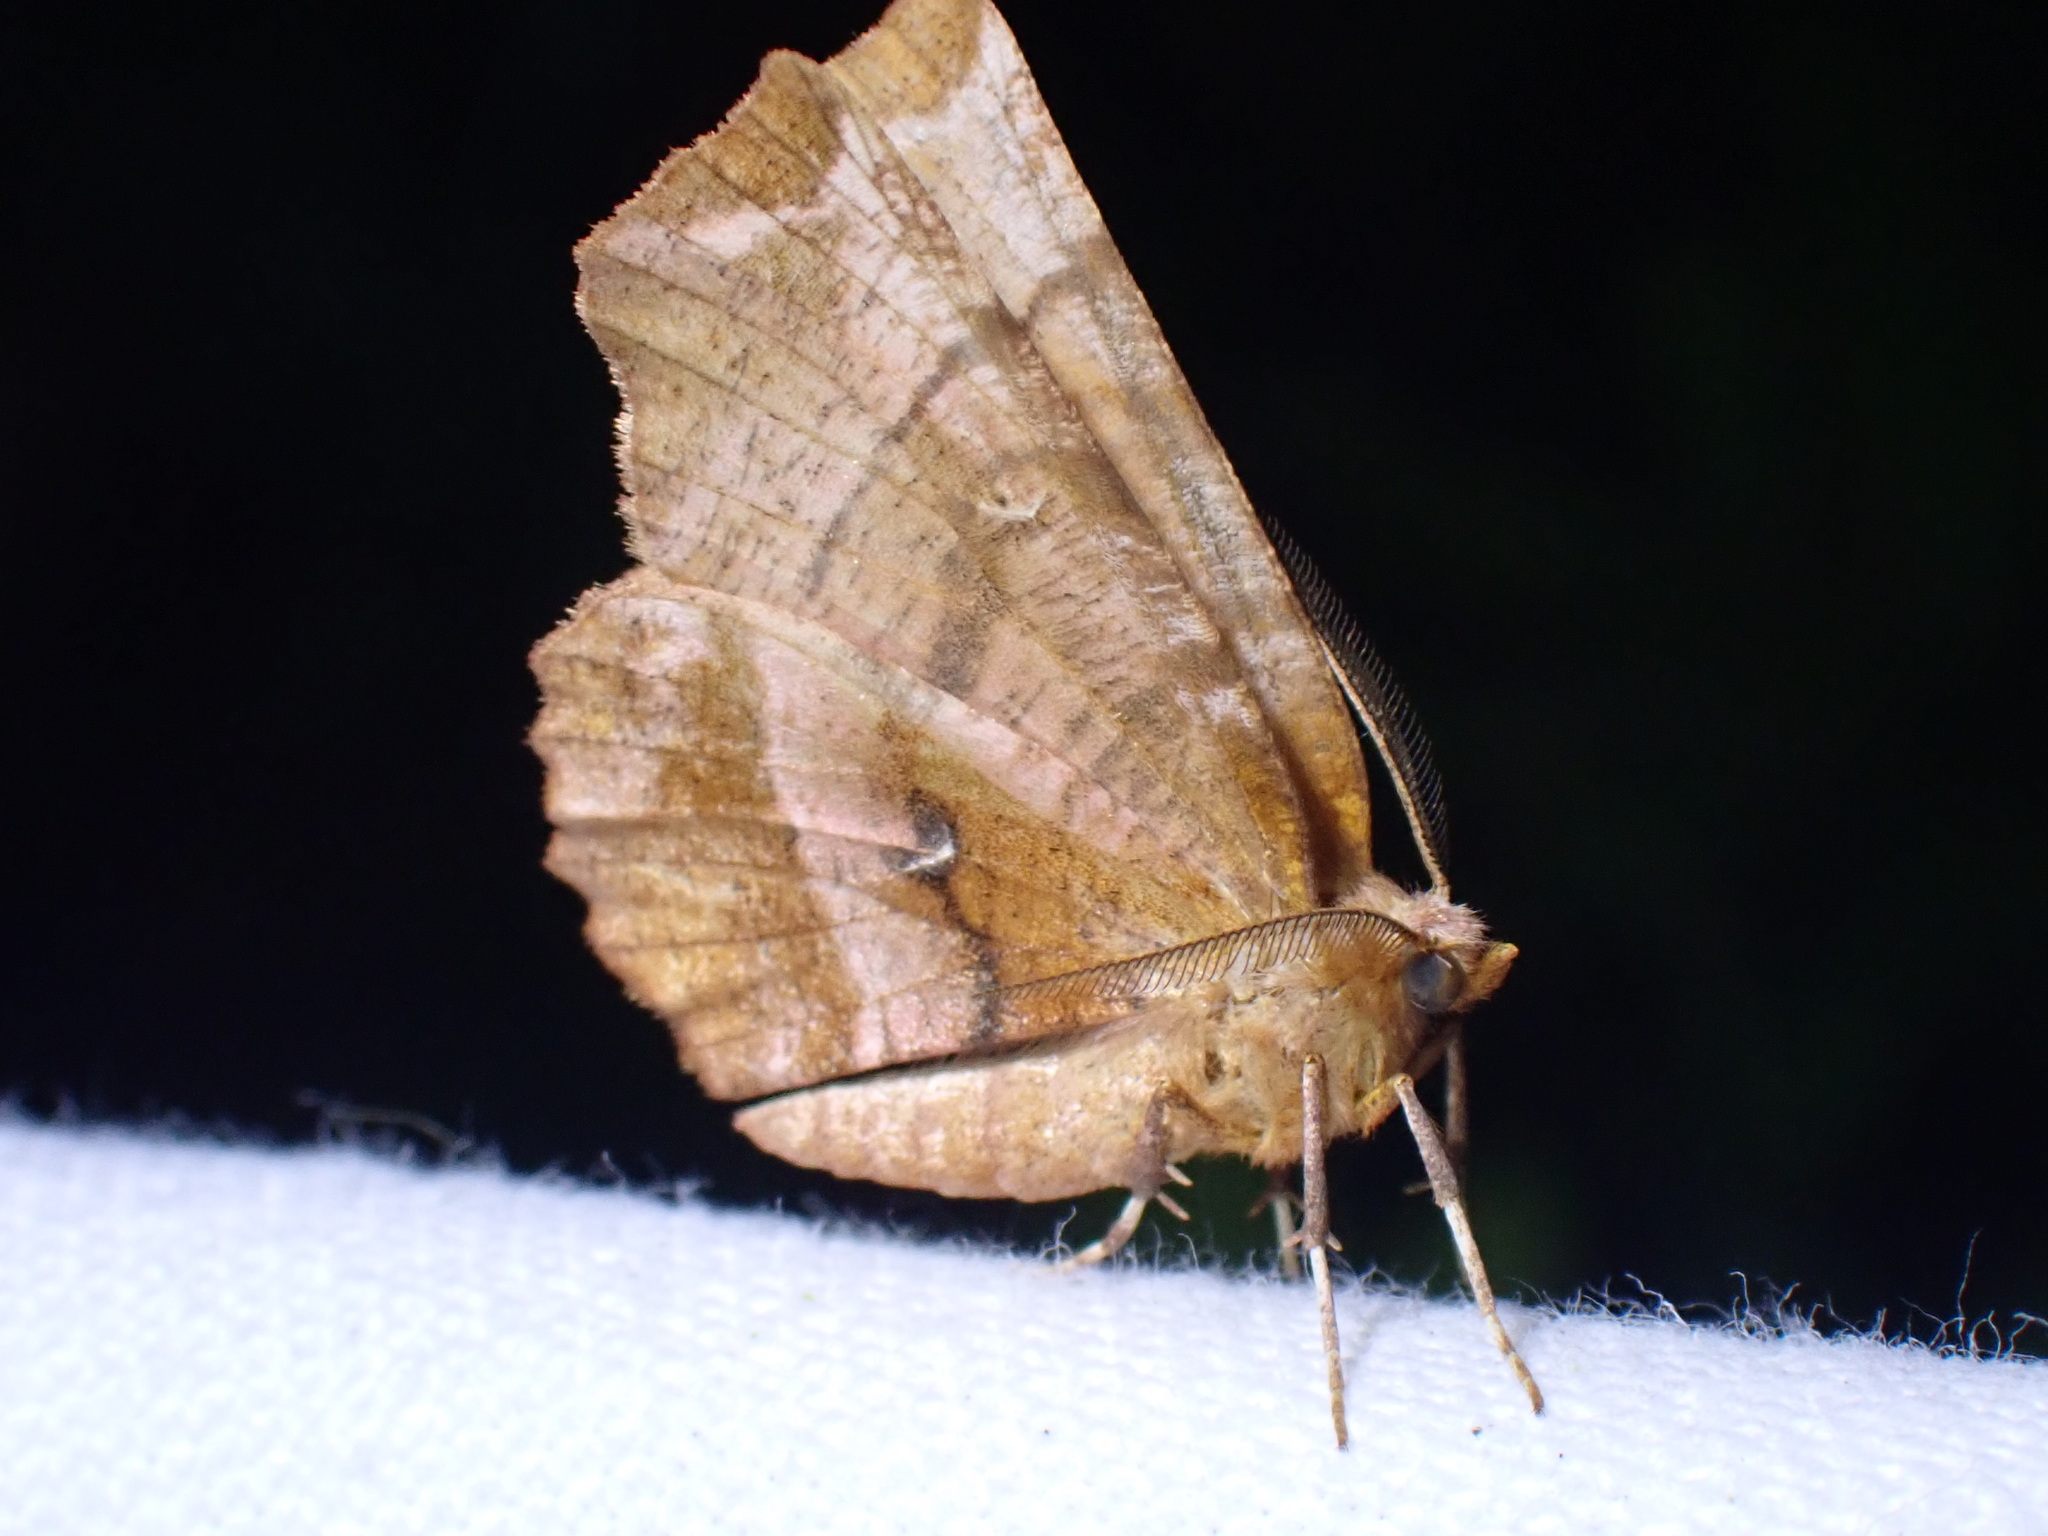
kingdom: Animalia
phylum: Arthropoda
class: Insecta
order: Lepidoptera
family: Geometridae
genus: Selenia
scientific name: Selenia dentaria
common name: Early thorn
